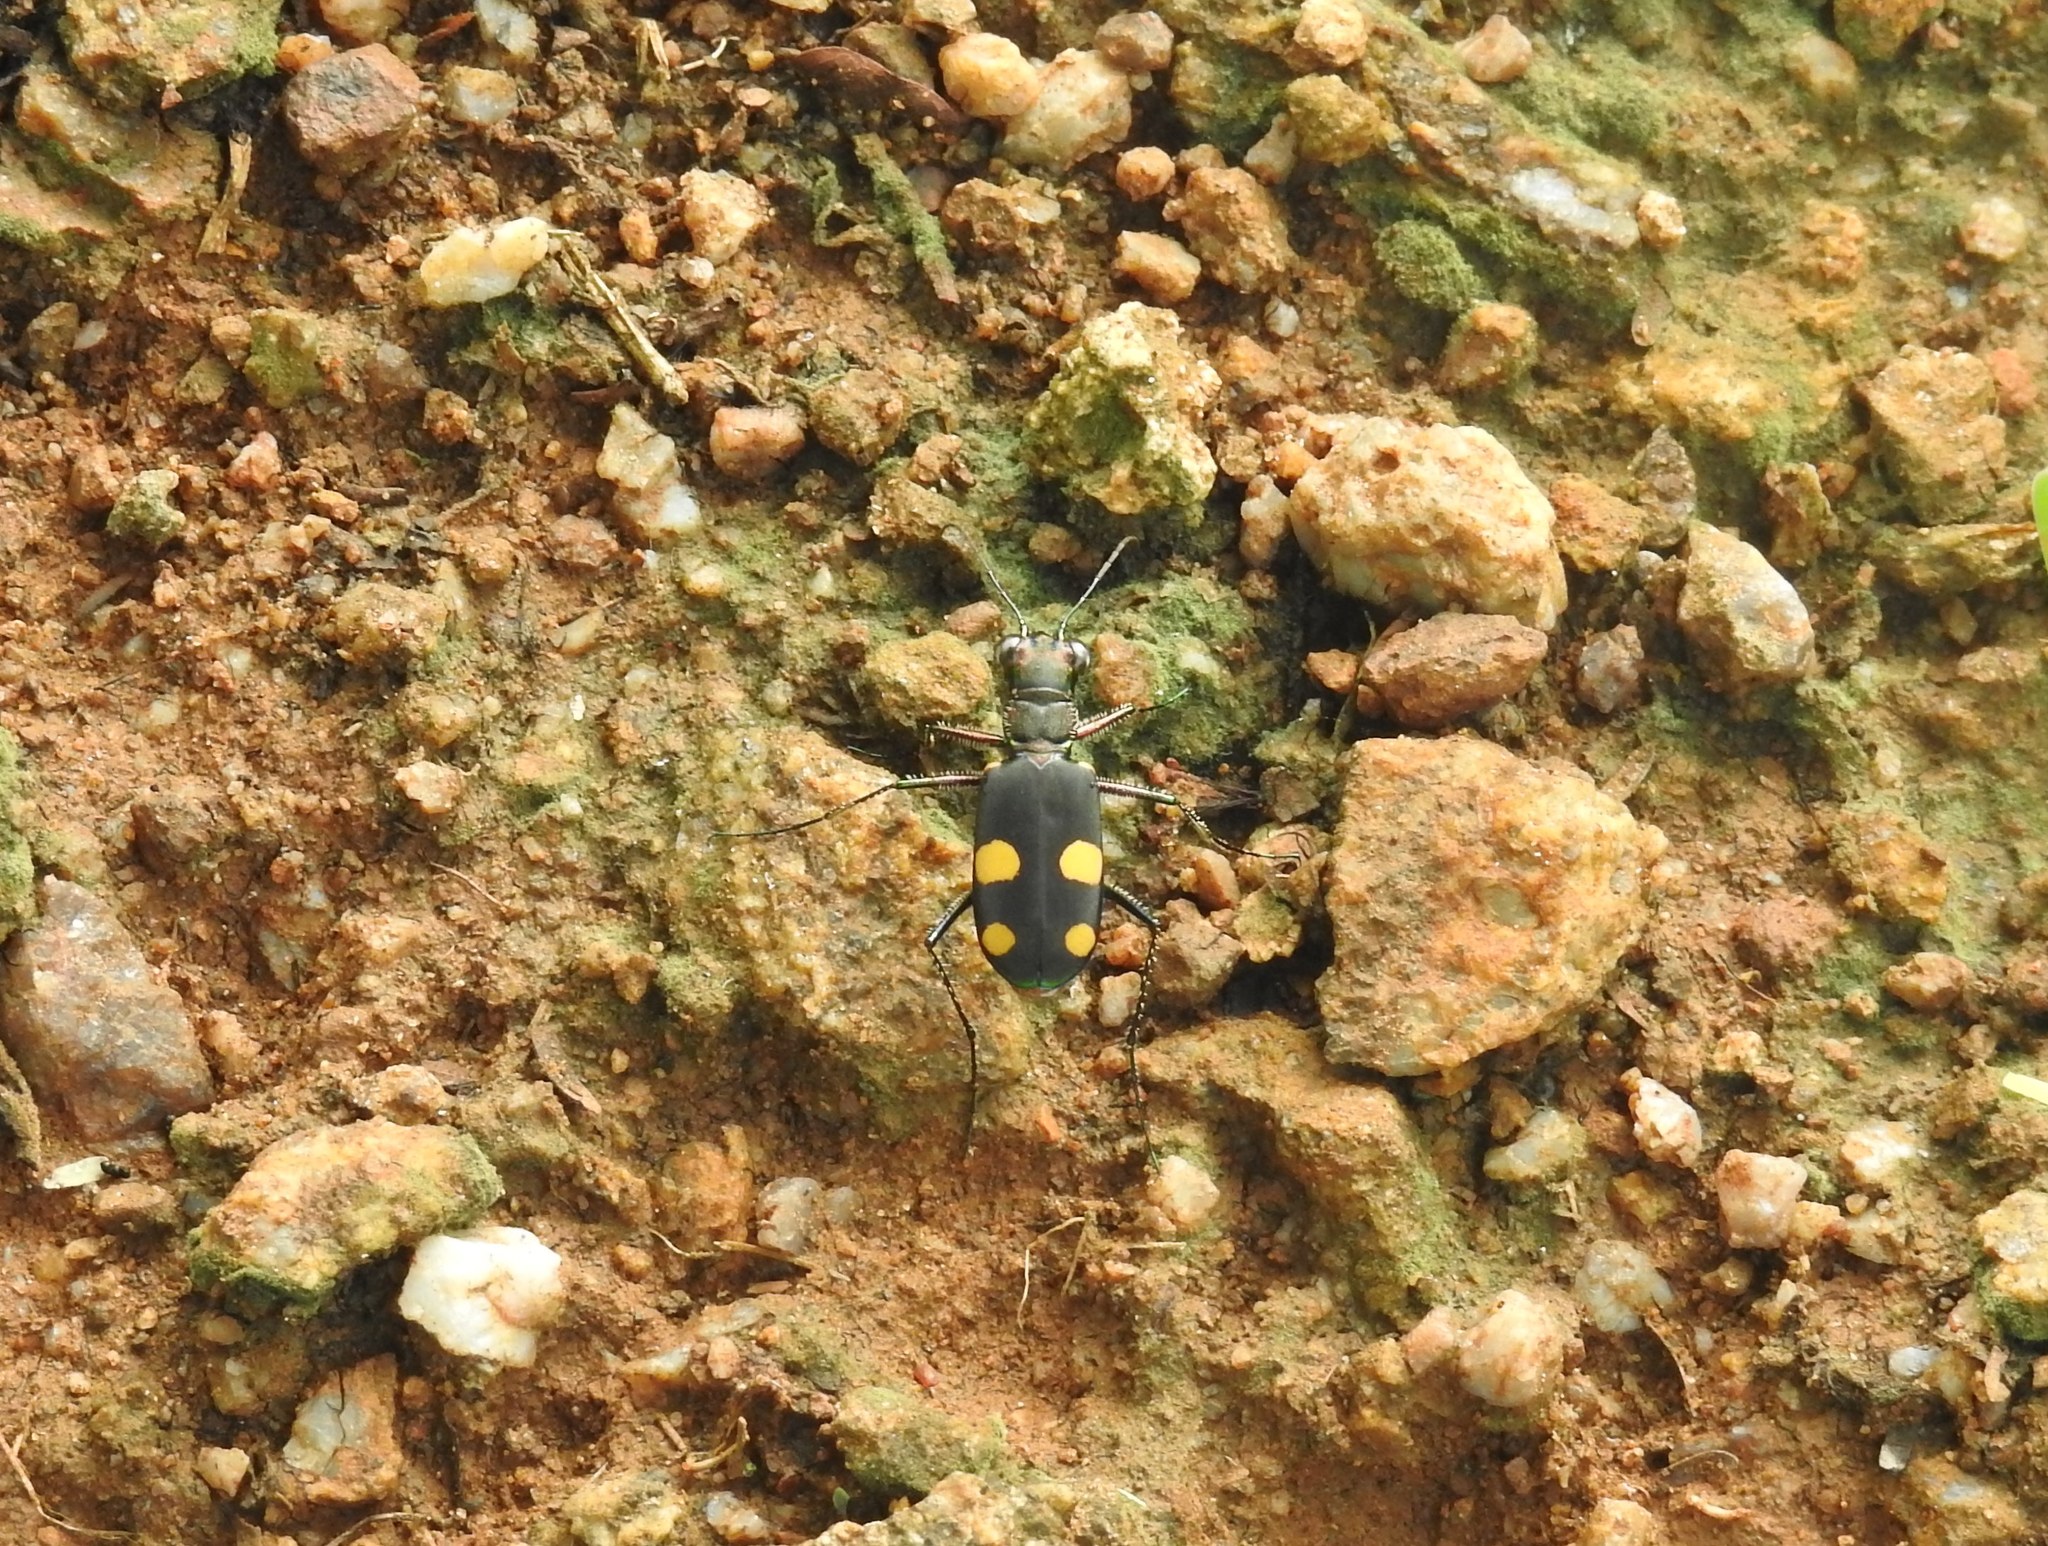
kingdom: Animalia
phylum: Arthropoda
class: Insecta
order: Coleoptera
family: Carabidae
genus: Cicindela
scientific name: Cicindela bicolor
